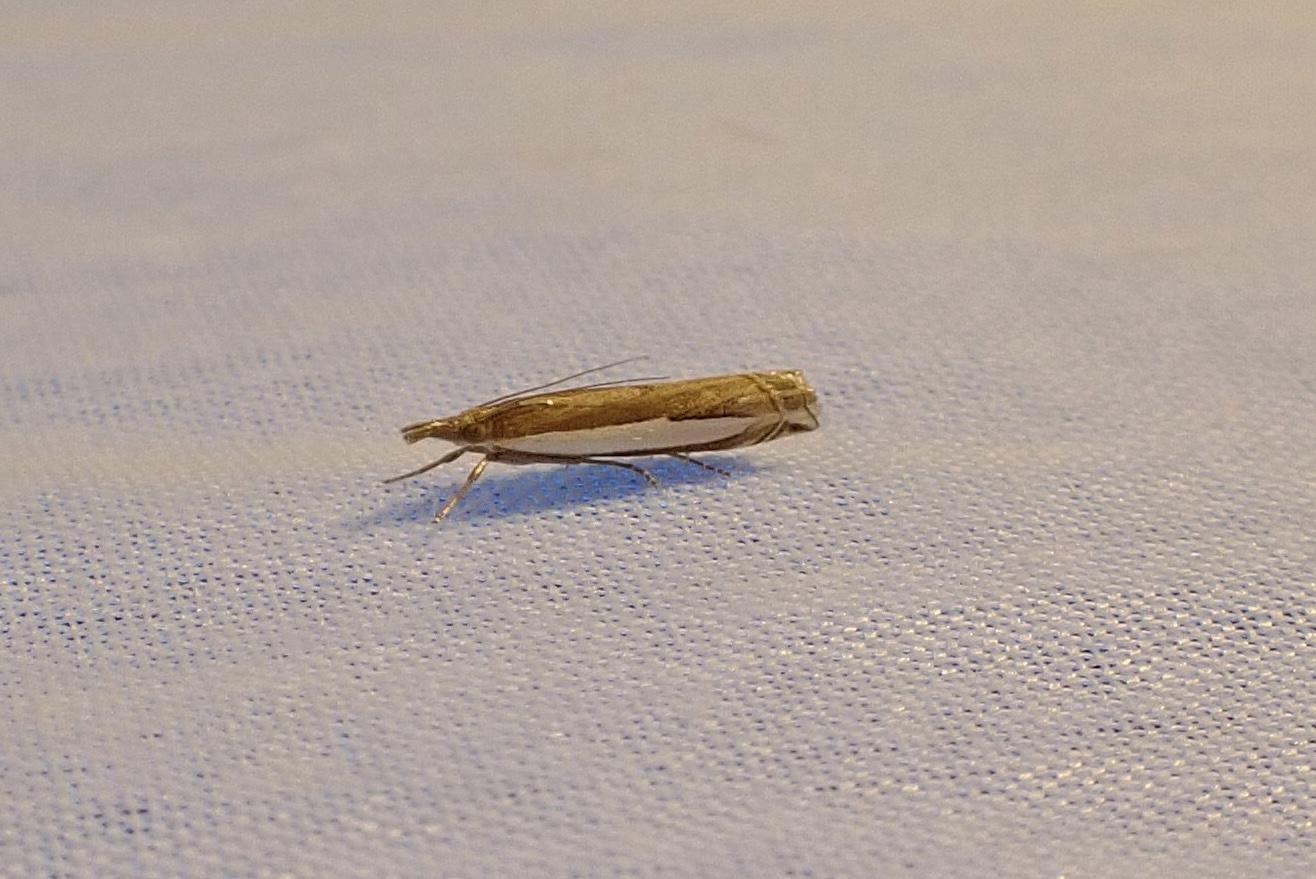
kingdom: Animalia
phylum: Arthropoda
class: Insecta
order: Lepidoptera
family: Crambidae
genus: Crambus
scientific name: Crambus sperryellus
